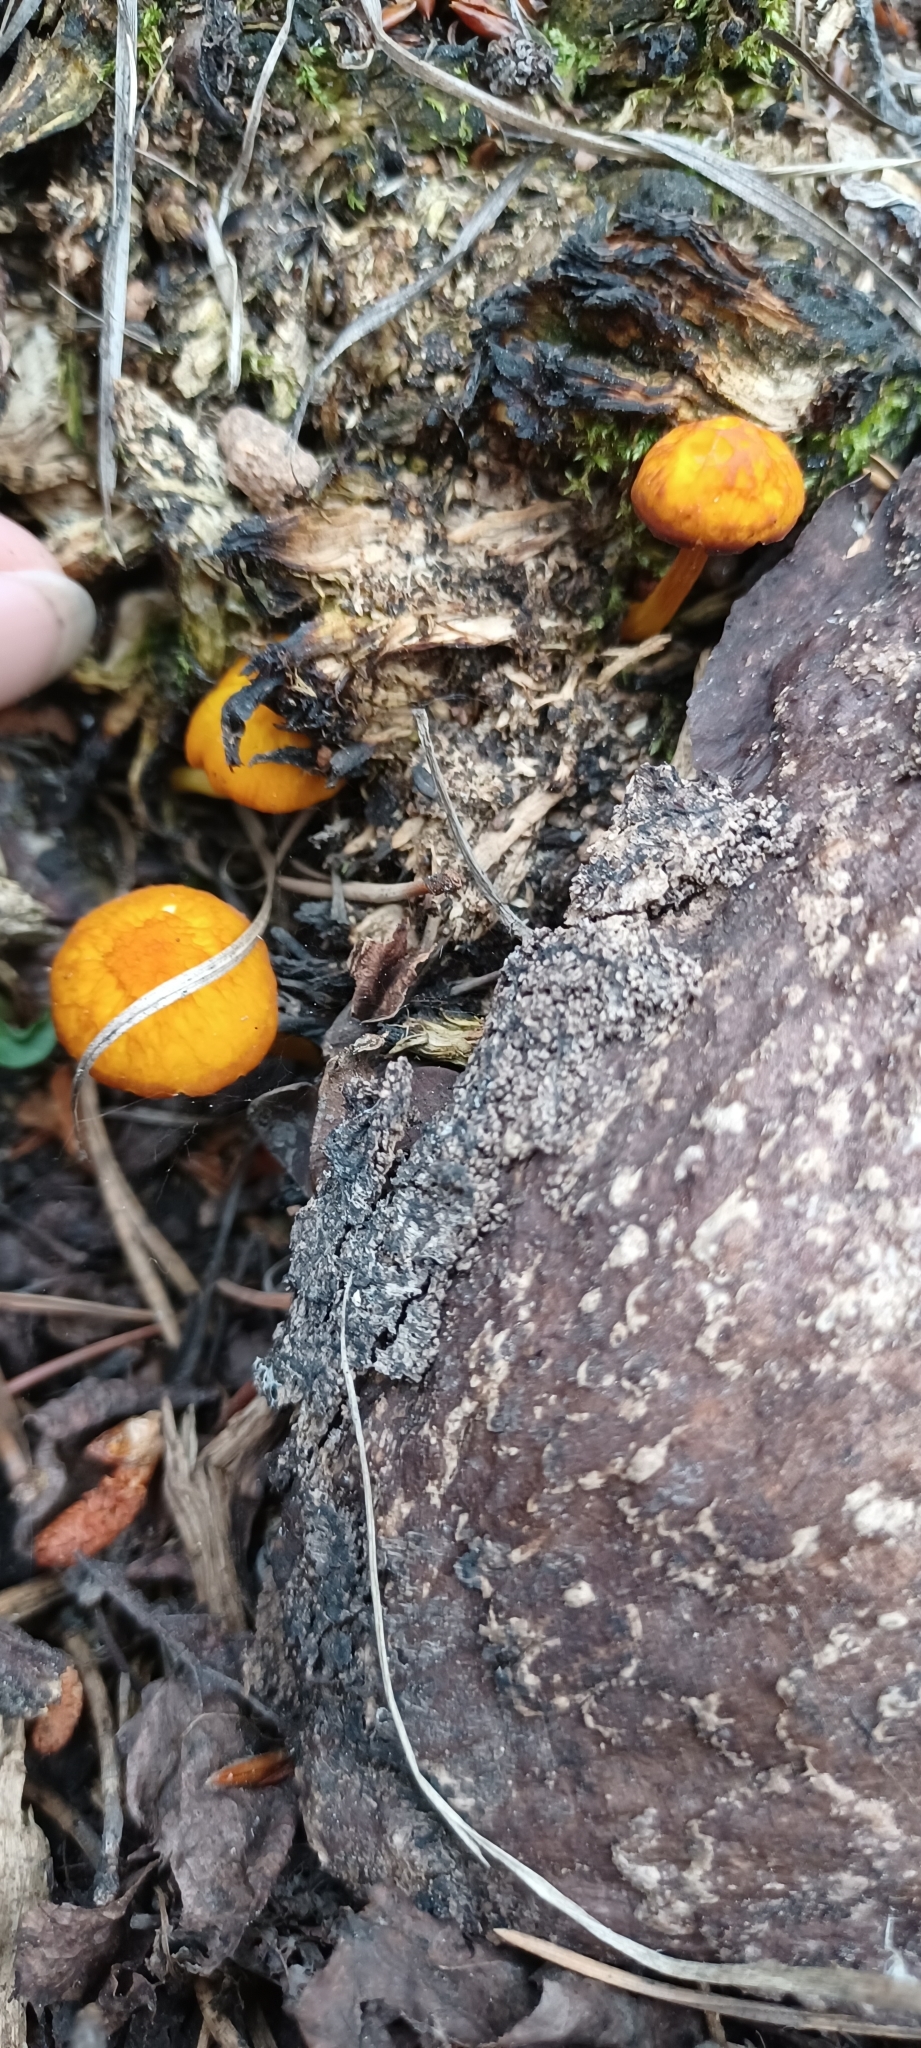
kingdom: Fungi
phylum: Basidiomycota
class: Agaricomycetes
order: Agaricales
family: Pluteaceae
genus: Pluteus
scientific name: Pluteus aurantiorugosus
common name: Flame shield
